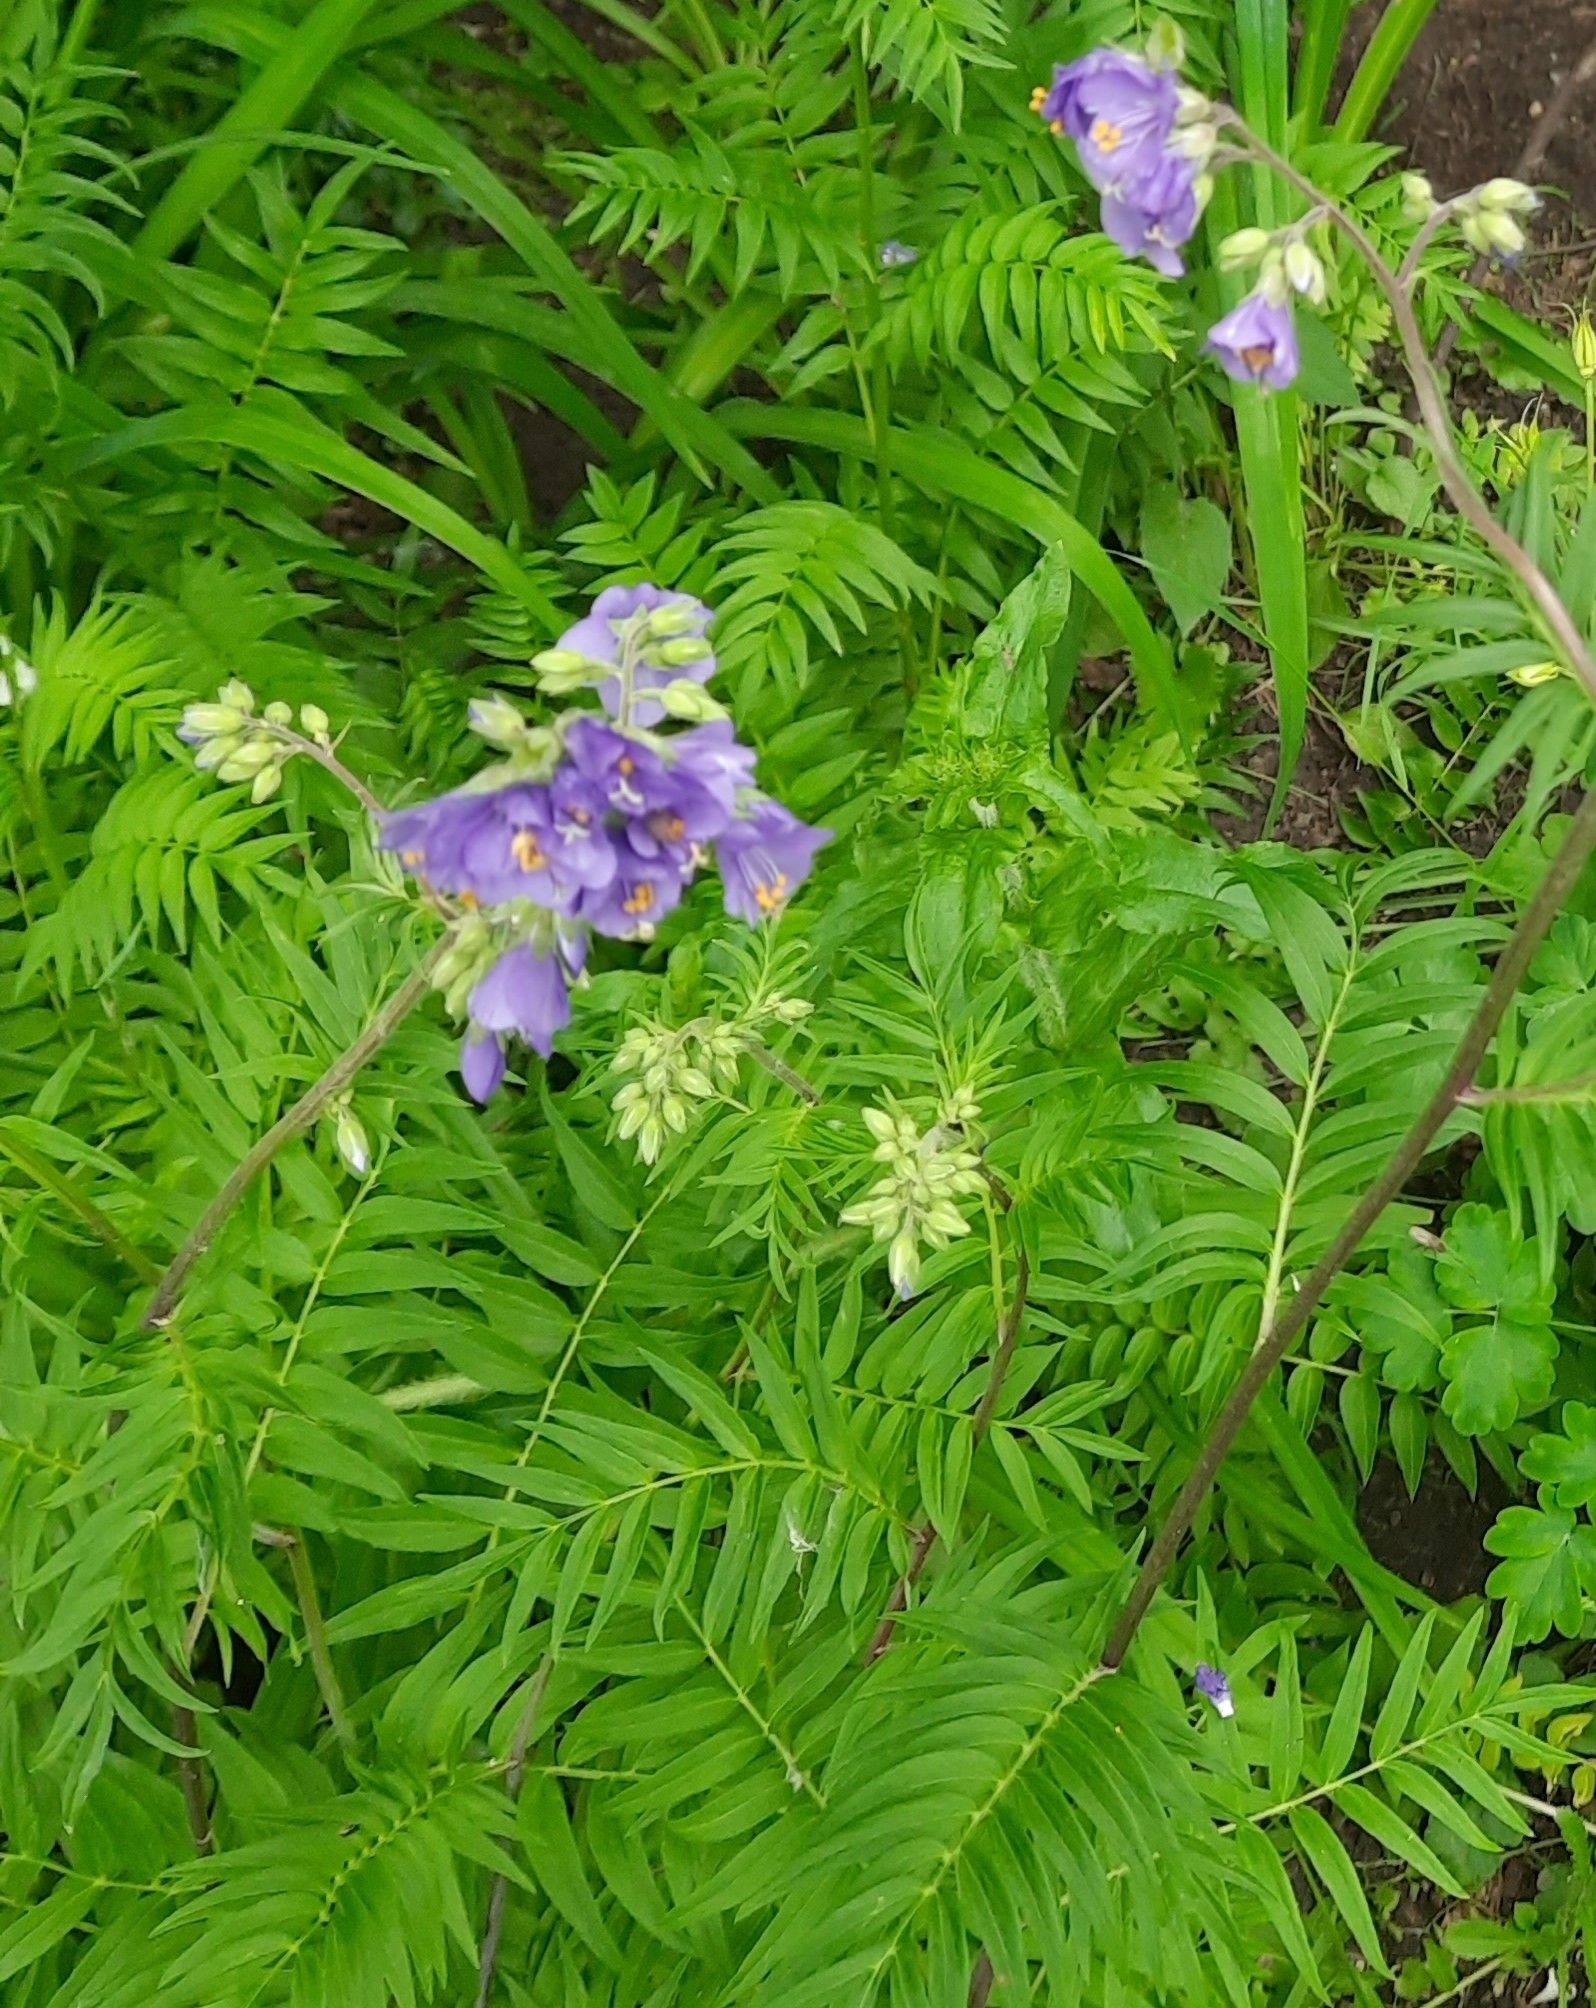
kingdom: Plantae
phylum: Tracheophyta
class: Magnoliopsida
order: Ericales
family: Polemoniaceae
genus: Polemonium
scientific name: Polemonium caeruleum
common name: Jacob's-ladder
